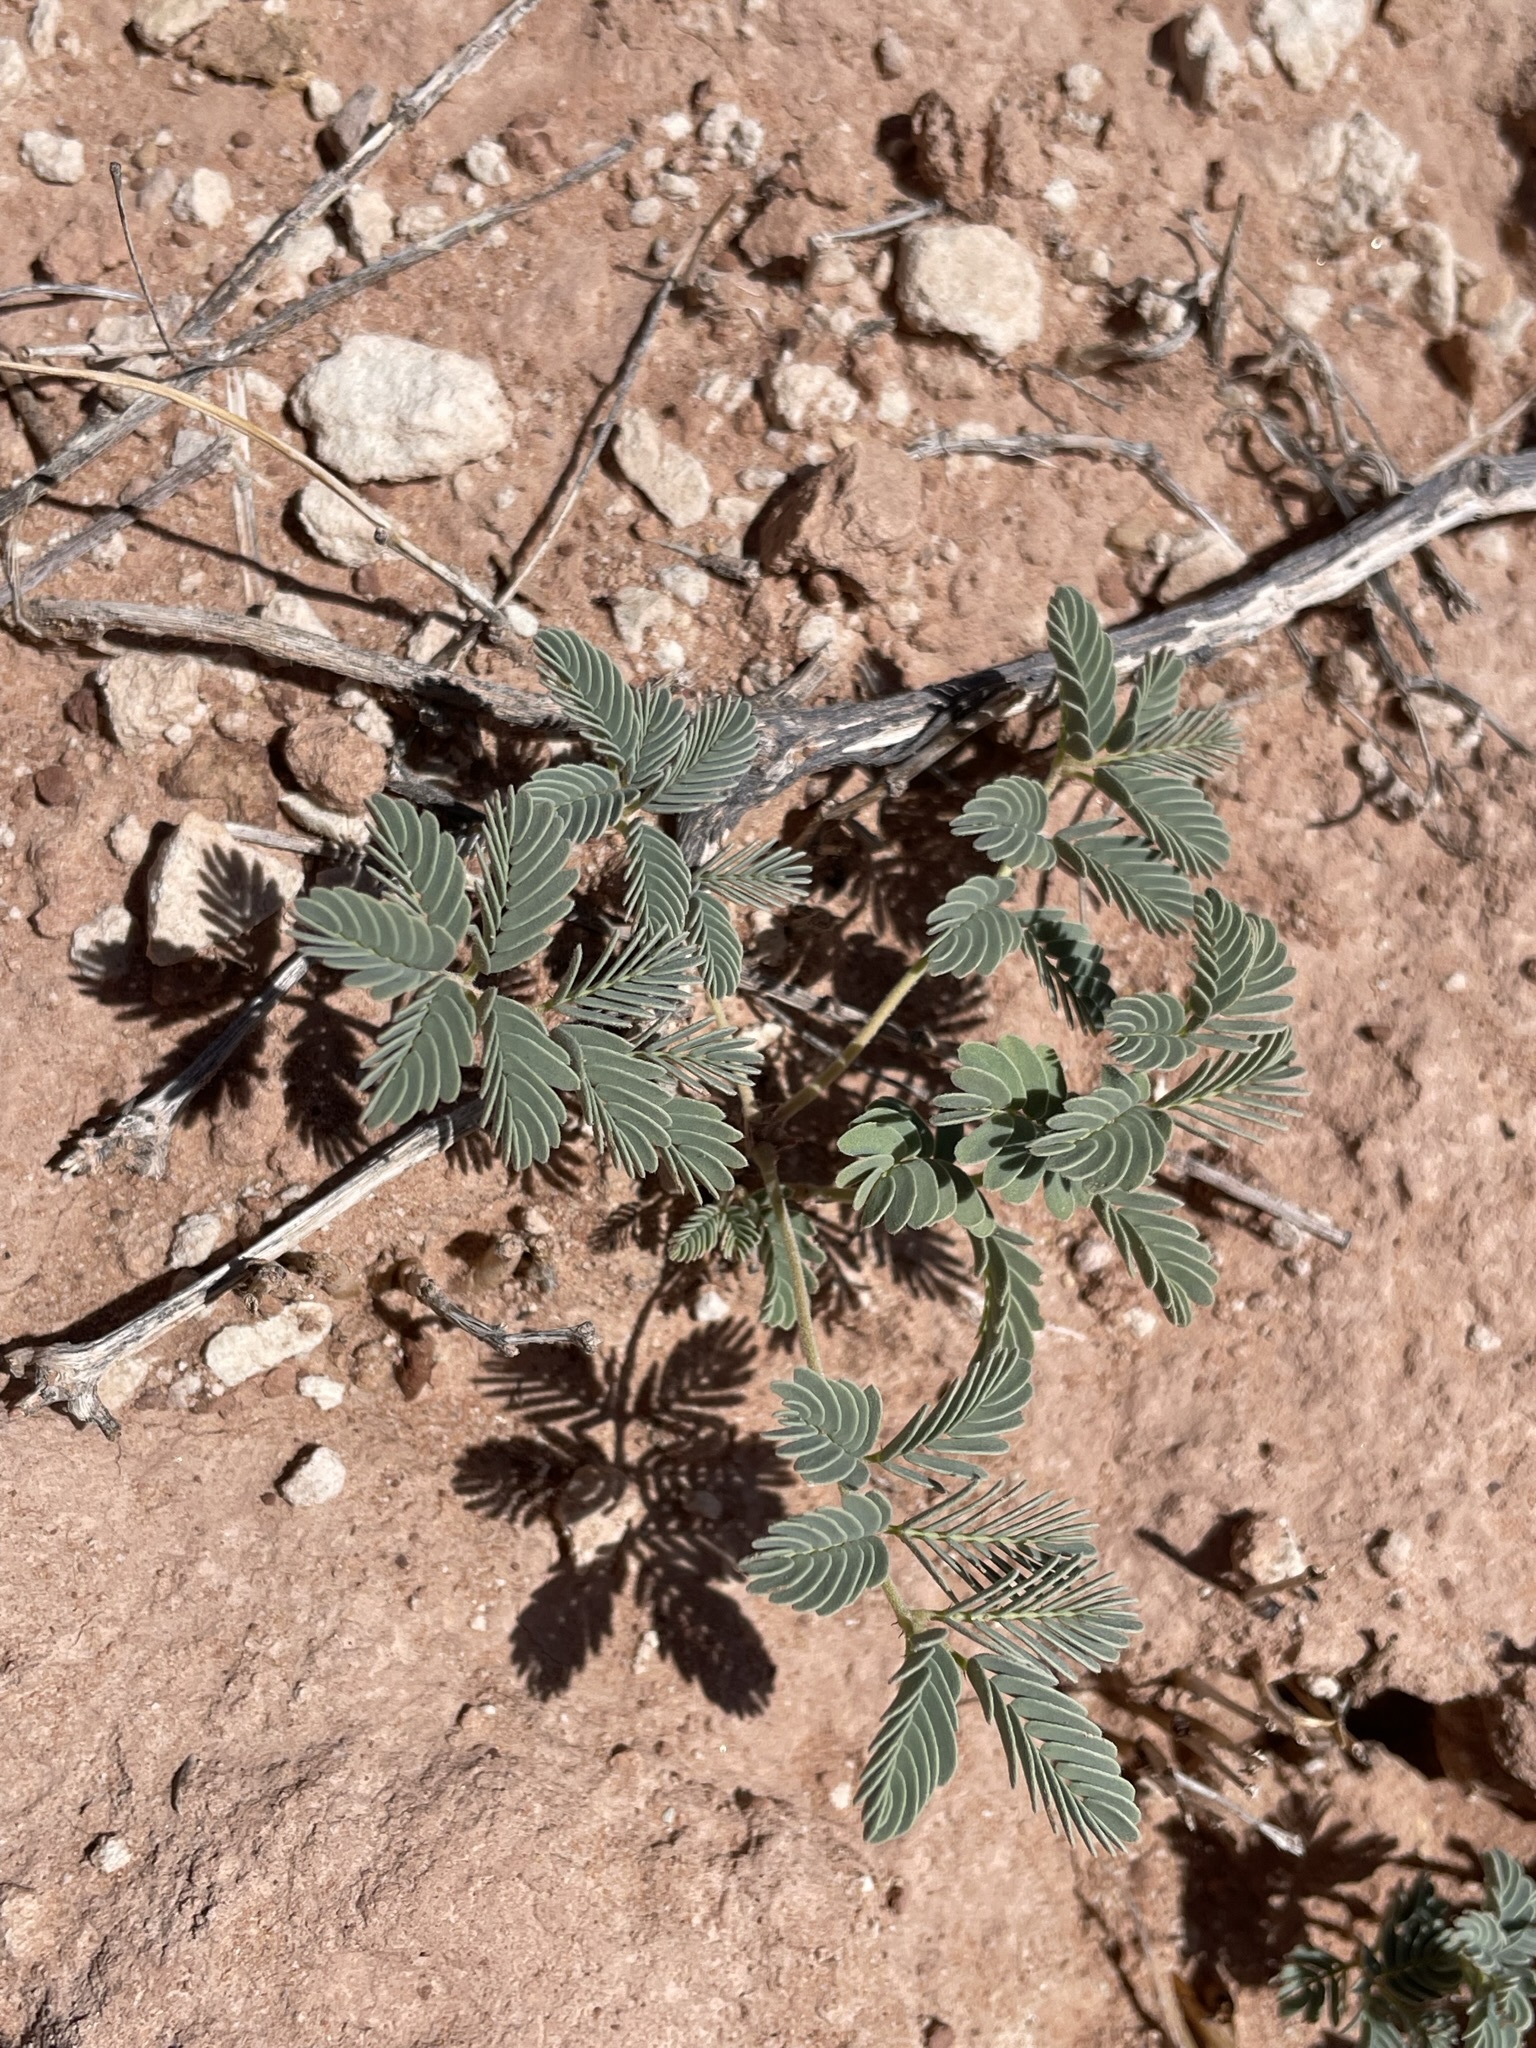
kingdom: Plantae
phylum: Tracheophyta
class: Magnoliopsida
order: Fabales
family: Fabaceae
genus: Hoffmannseggia
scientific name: Hoffmannseggia repens
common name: Creeping rush-pea
